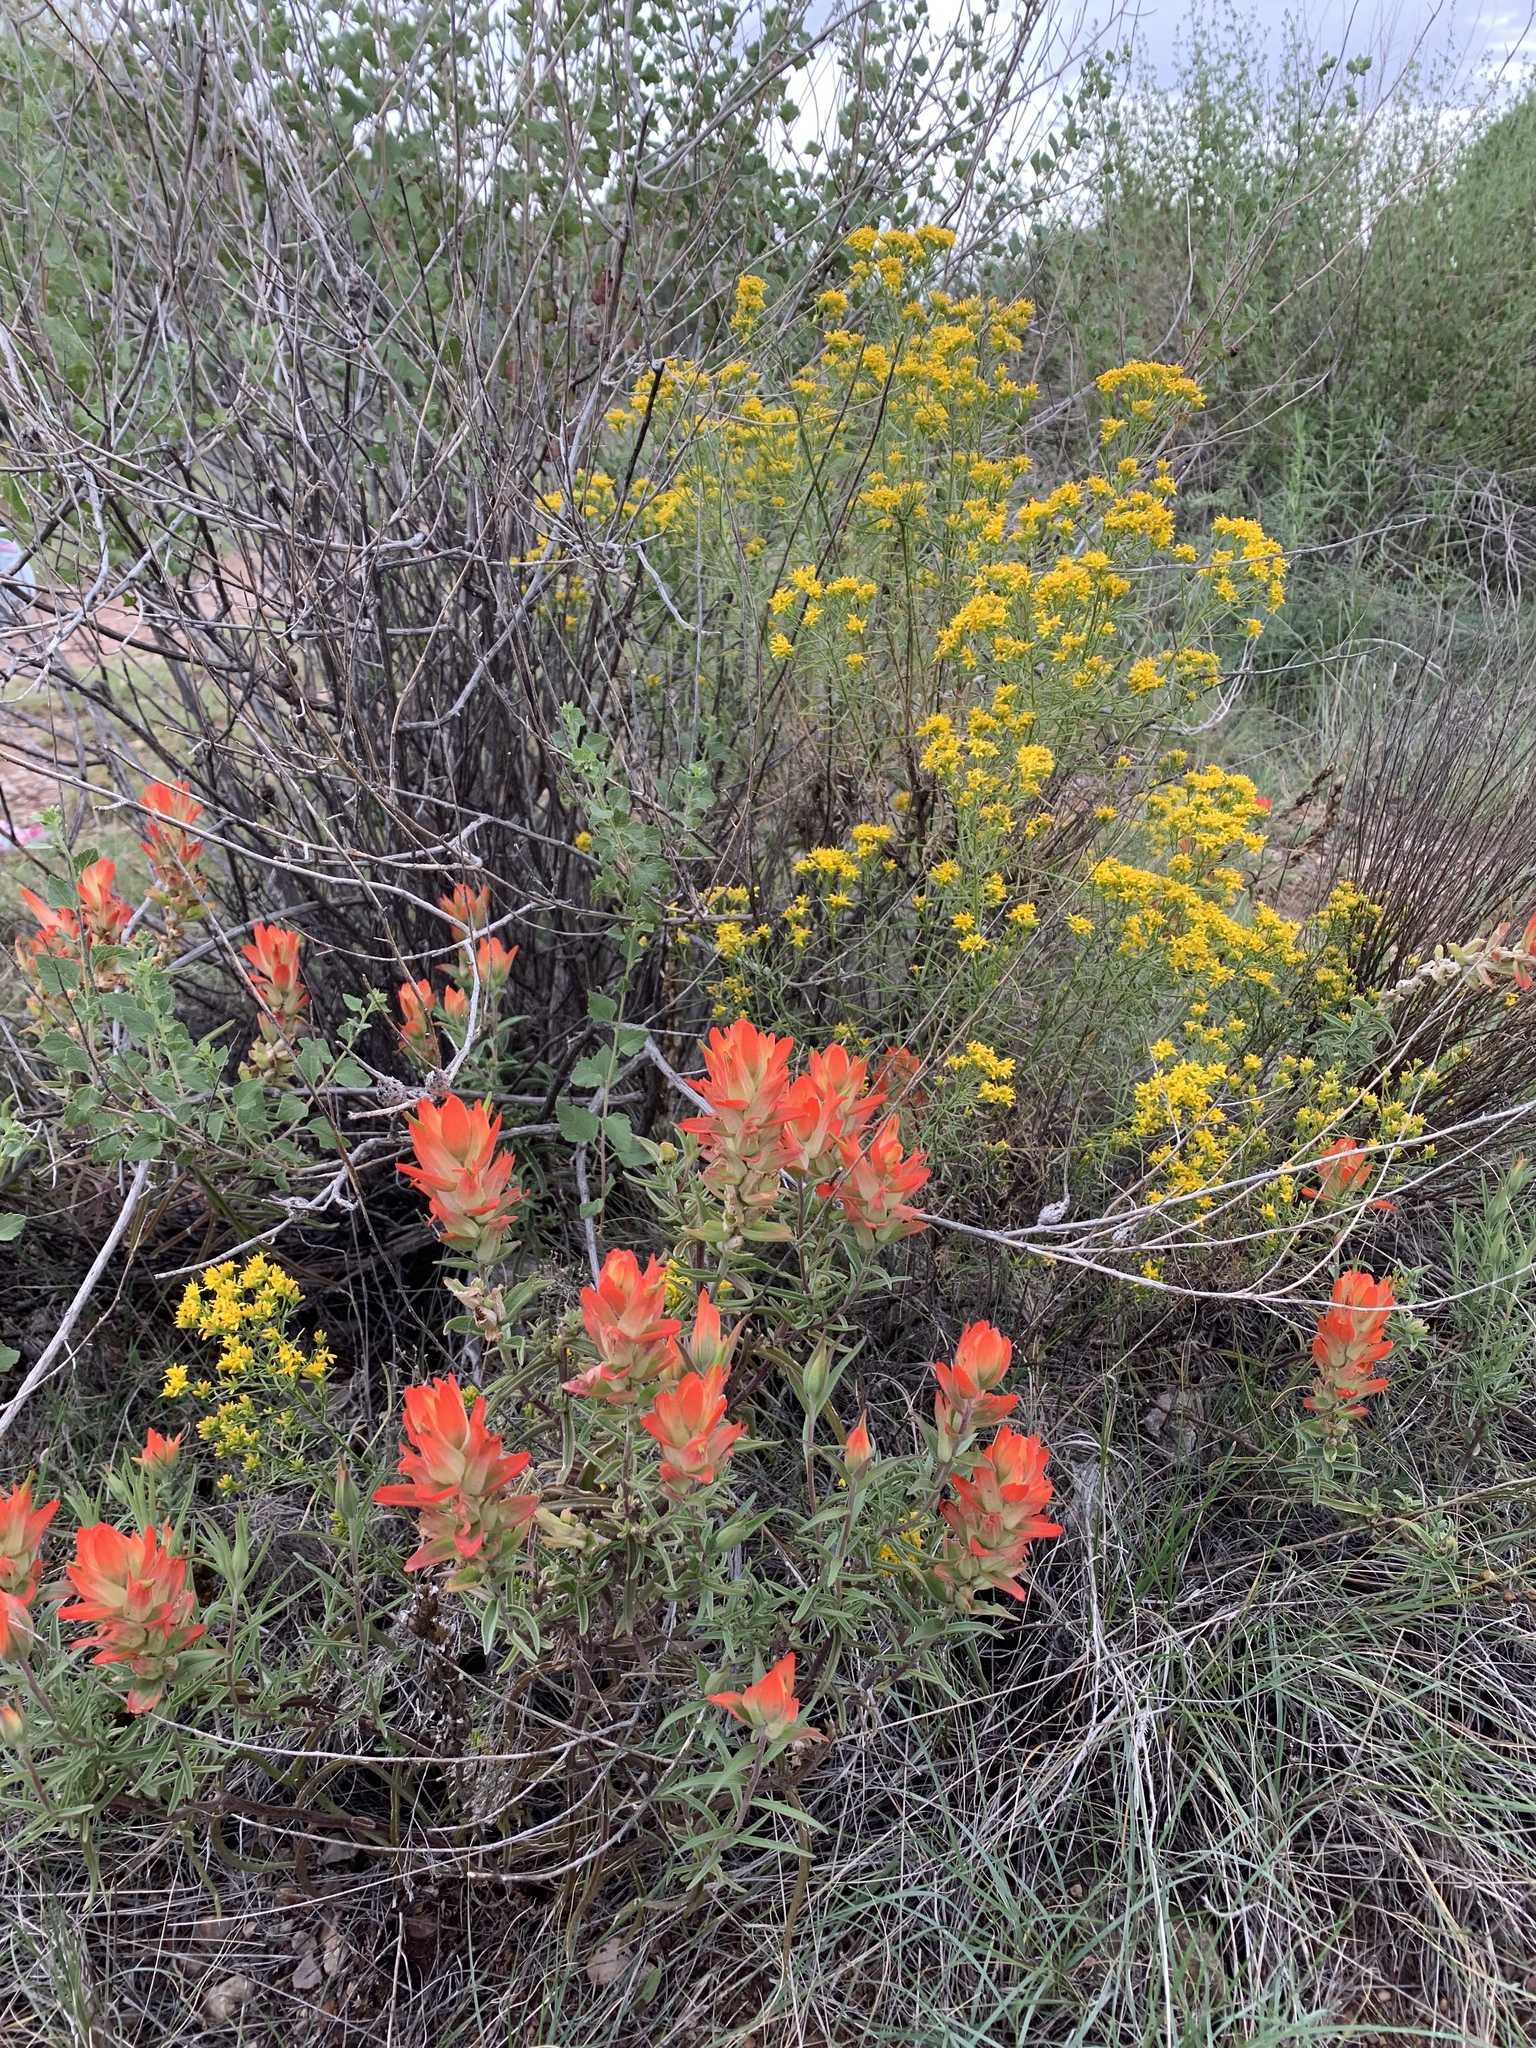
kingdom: Plantae
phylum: Tracheophyta
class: Magnoliopsida
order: Lamiales
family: Orobanchaceae
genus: Castilleja
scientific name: Castilleja integra
